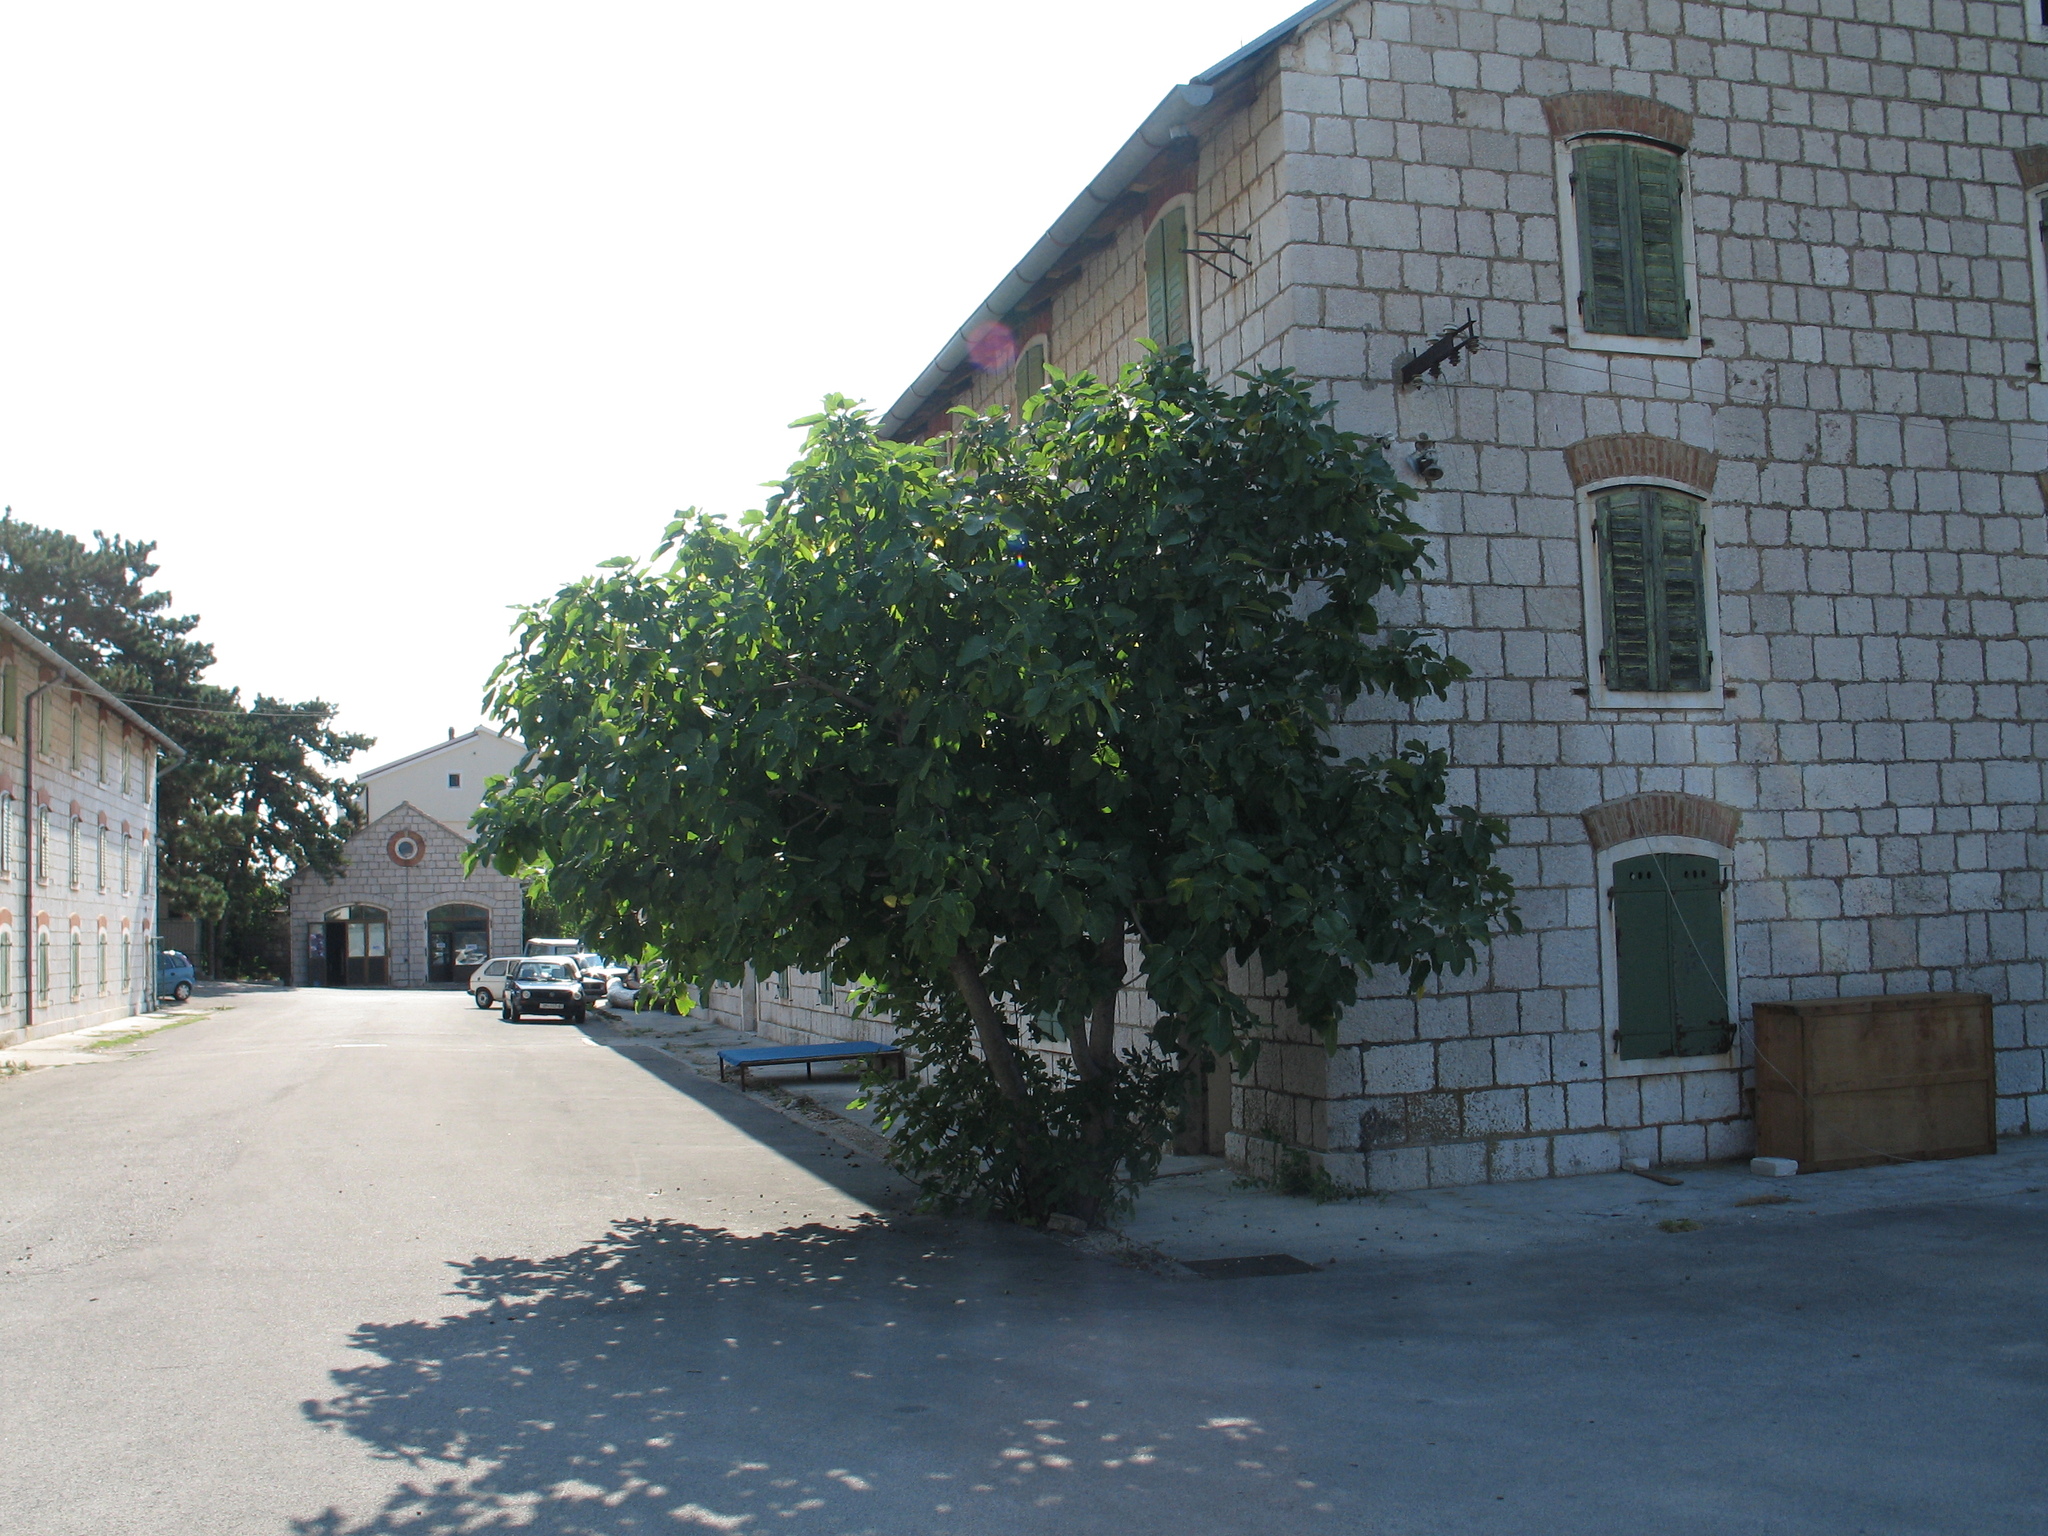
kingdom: Plantae
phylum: Tracheophyta
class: Magnoliopsida
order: Rosales
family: Moraceae
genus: Ficus
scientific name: Ficus carica
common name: Fig
